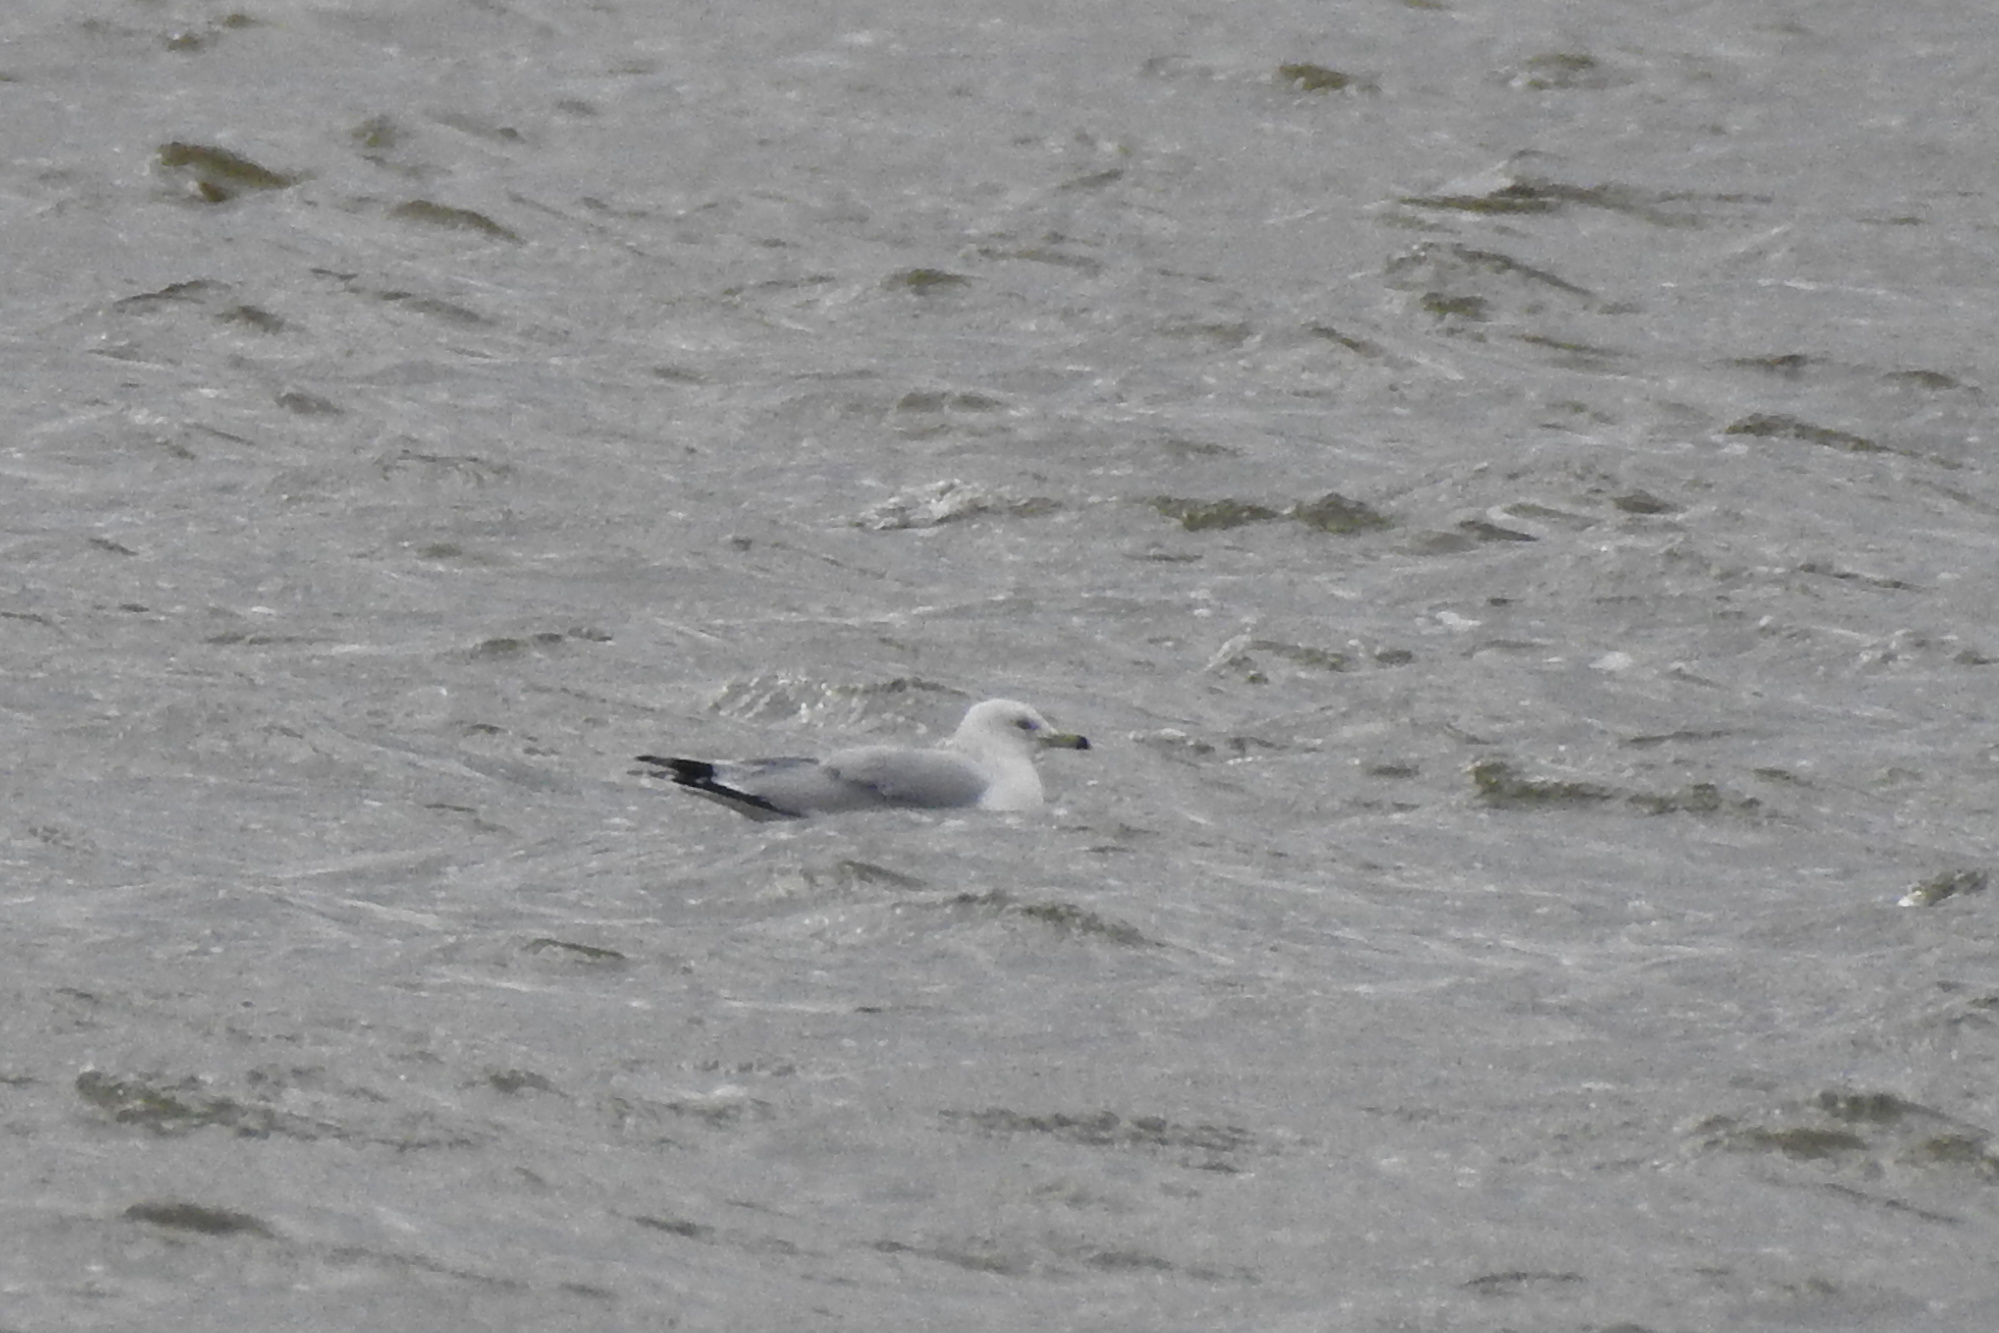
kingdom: Animalia
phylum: Chordata
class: Aves
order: Charadriiformes
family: Laridae
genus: Larus
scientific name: Larus delawarensis
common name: Ring-billed gull
